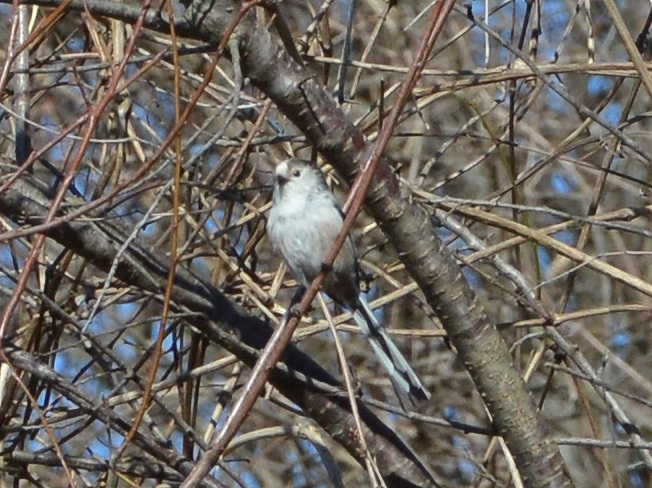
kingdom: Animalia
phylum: Chordata
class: Aves
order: Passeriformes
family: Aegithalidae
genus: Aegithalos
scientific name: Aegithalos caudatus
